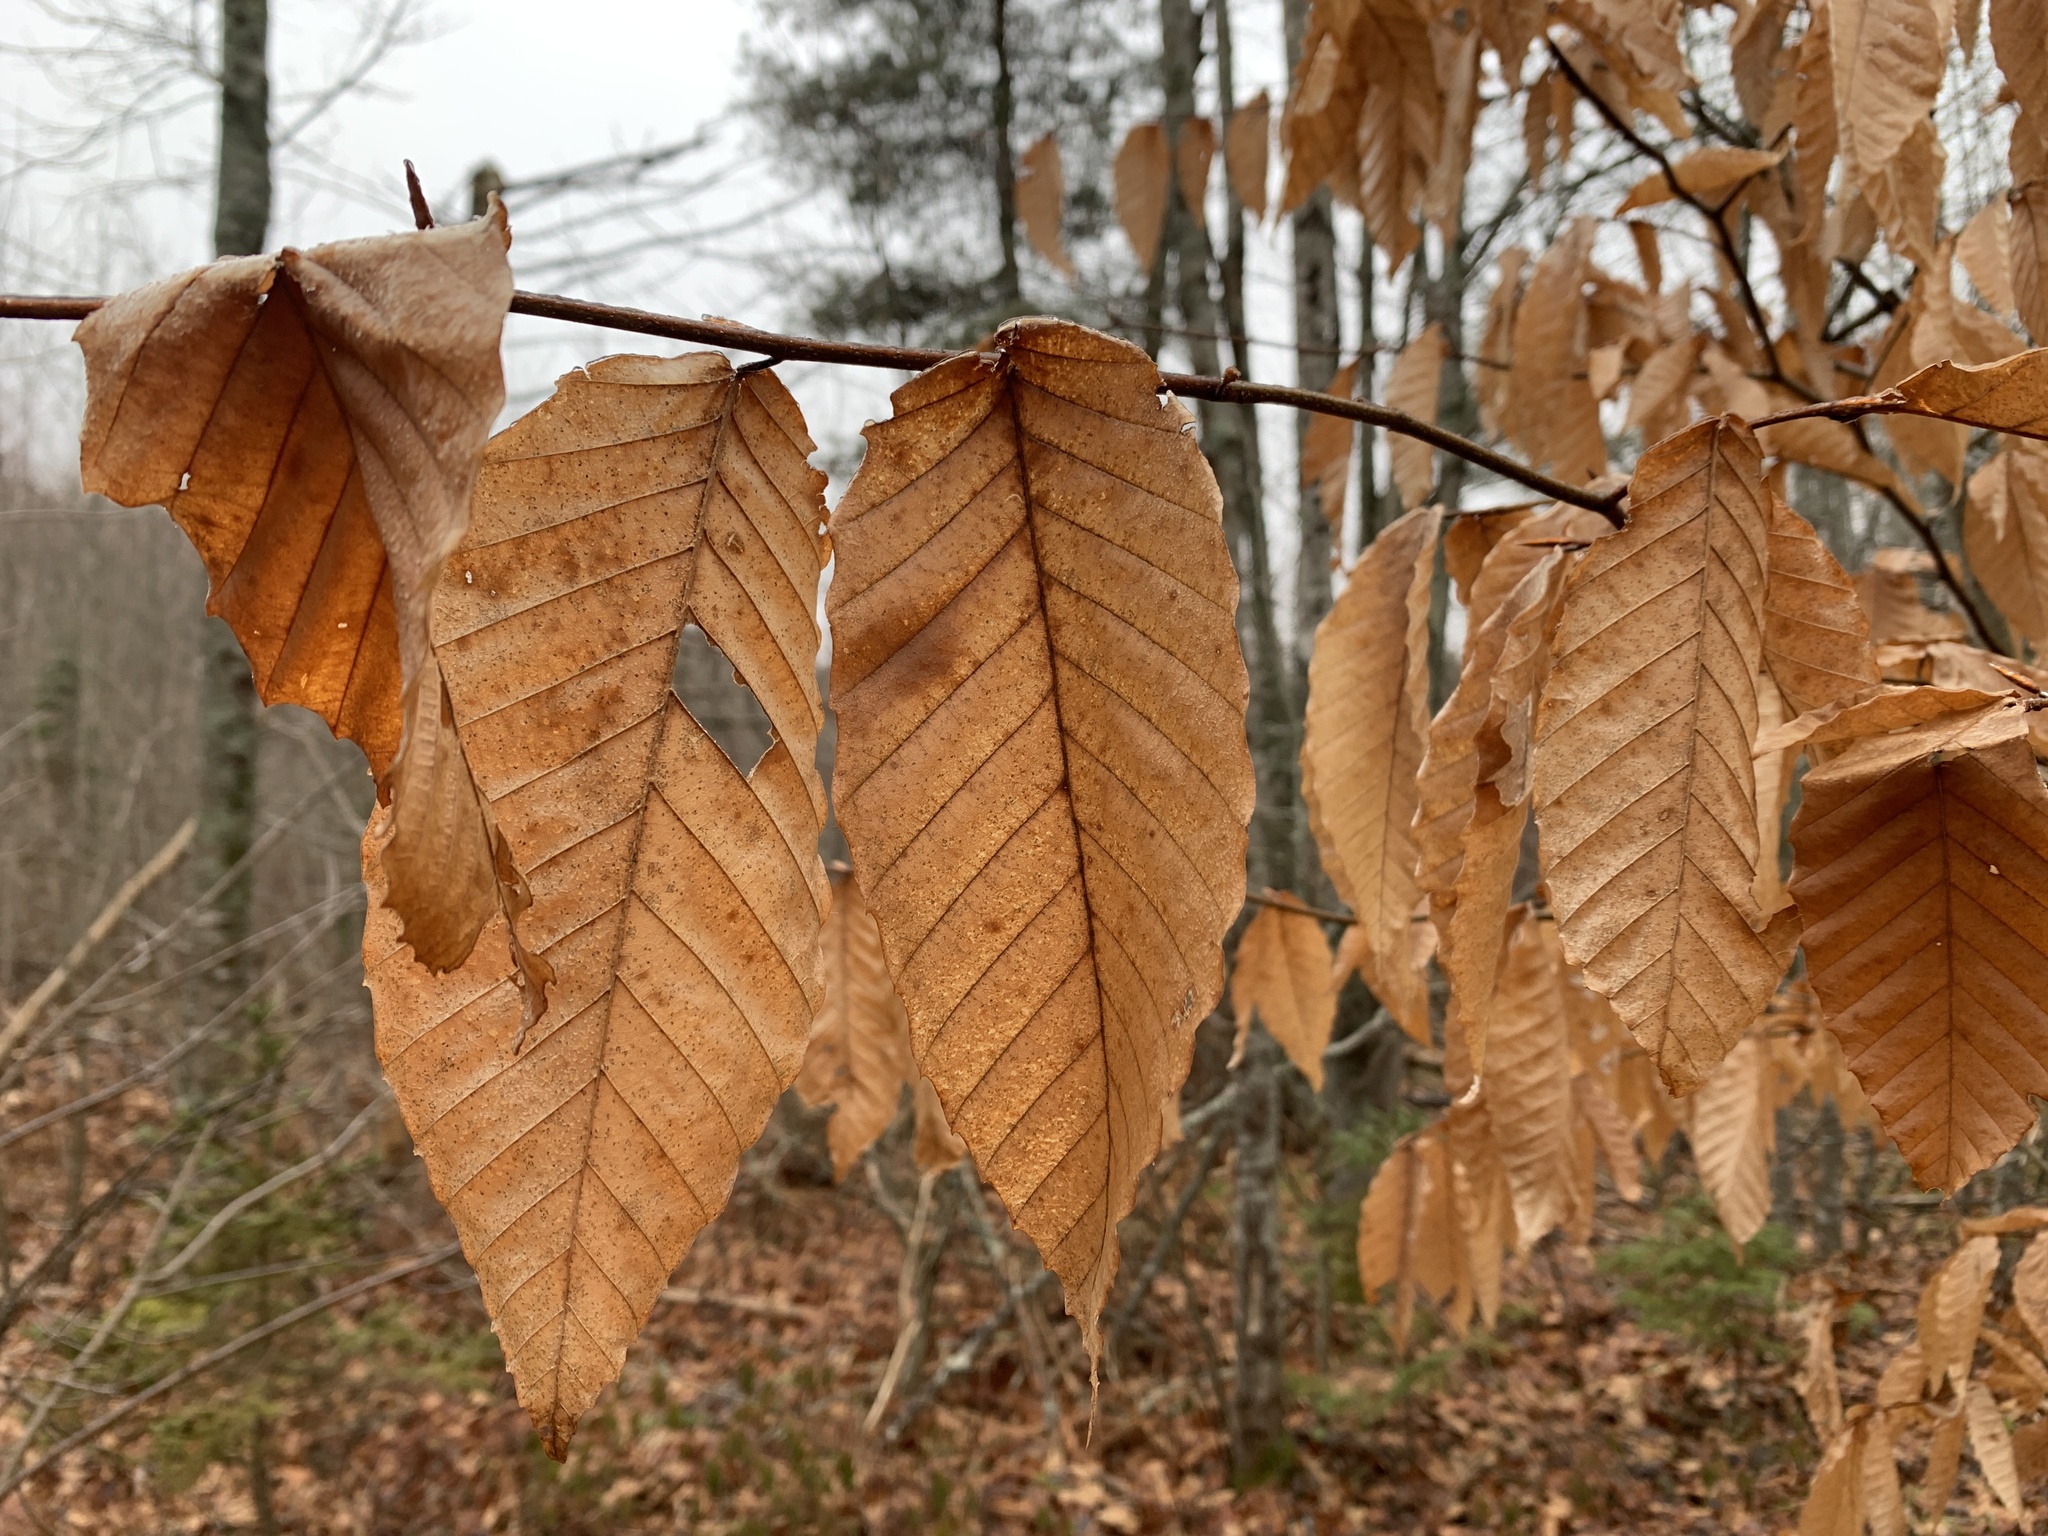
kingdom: Plantae
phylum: Tracheophyta
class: Magnoliopsida
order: Fagales
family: Fagaceae
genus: Fagus
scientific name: Fagus grandifolia
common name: American beech
